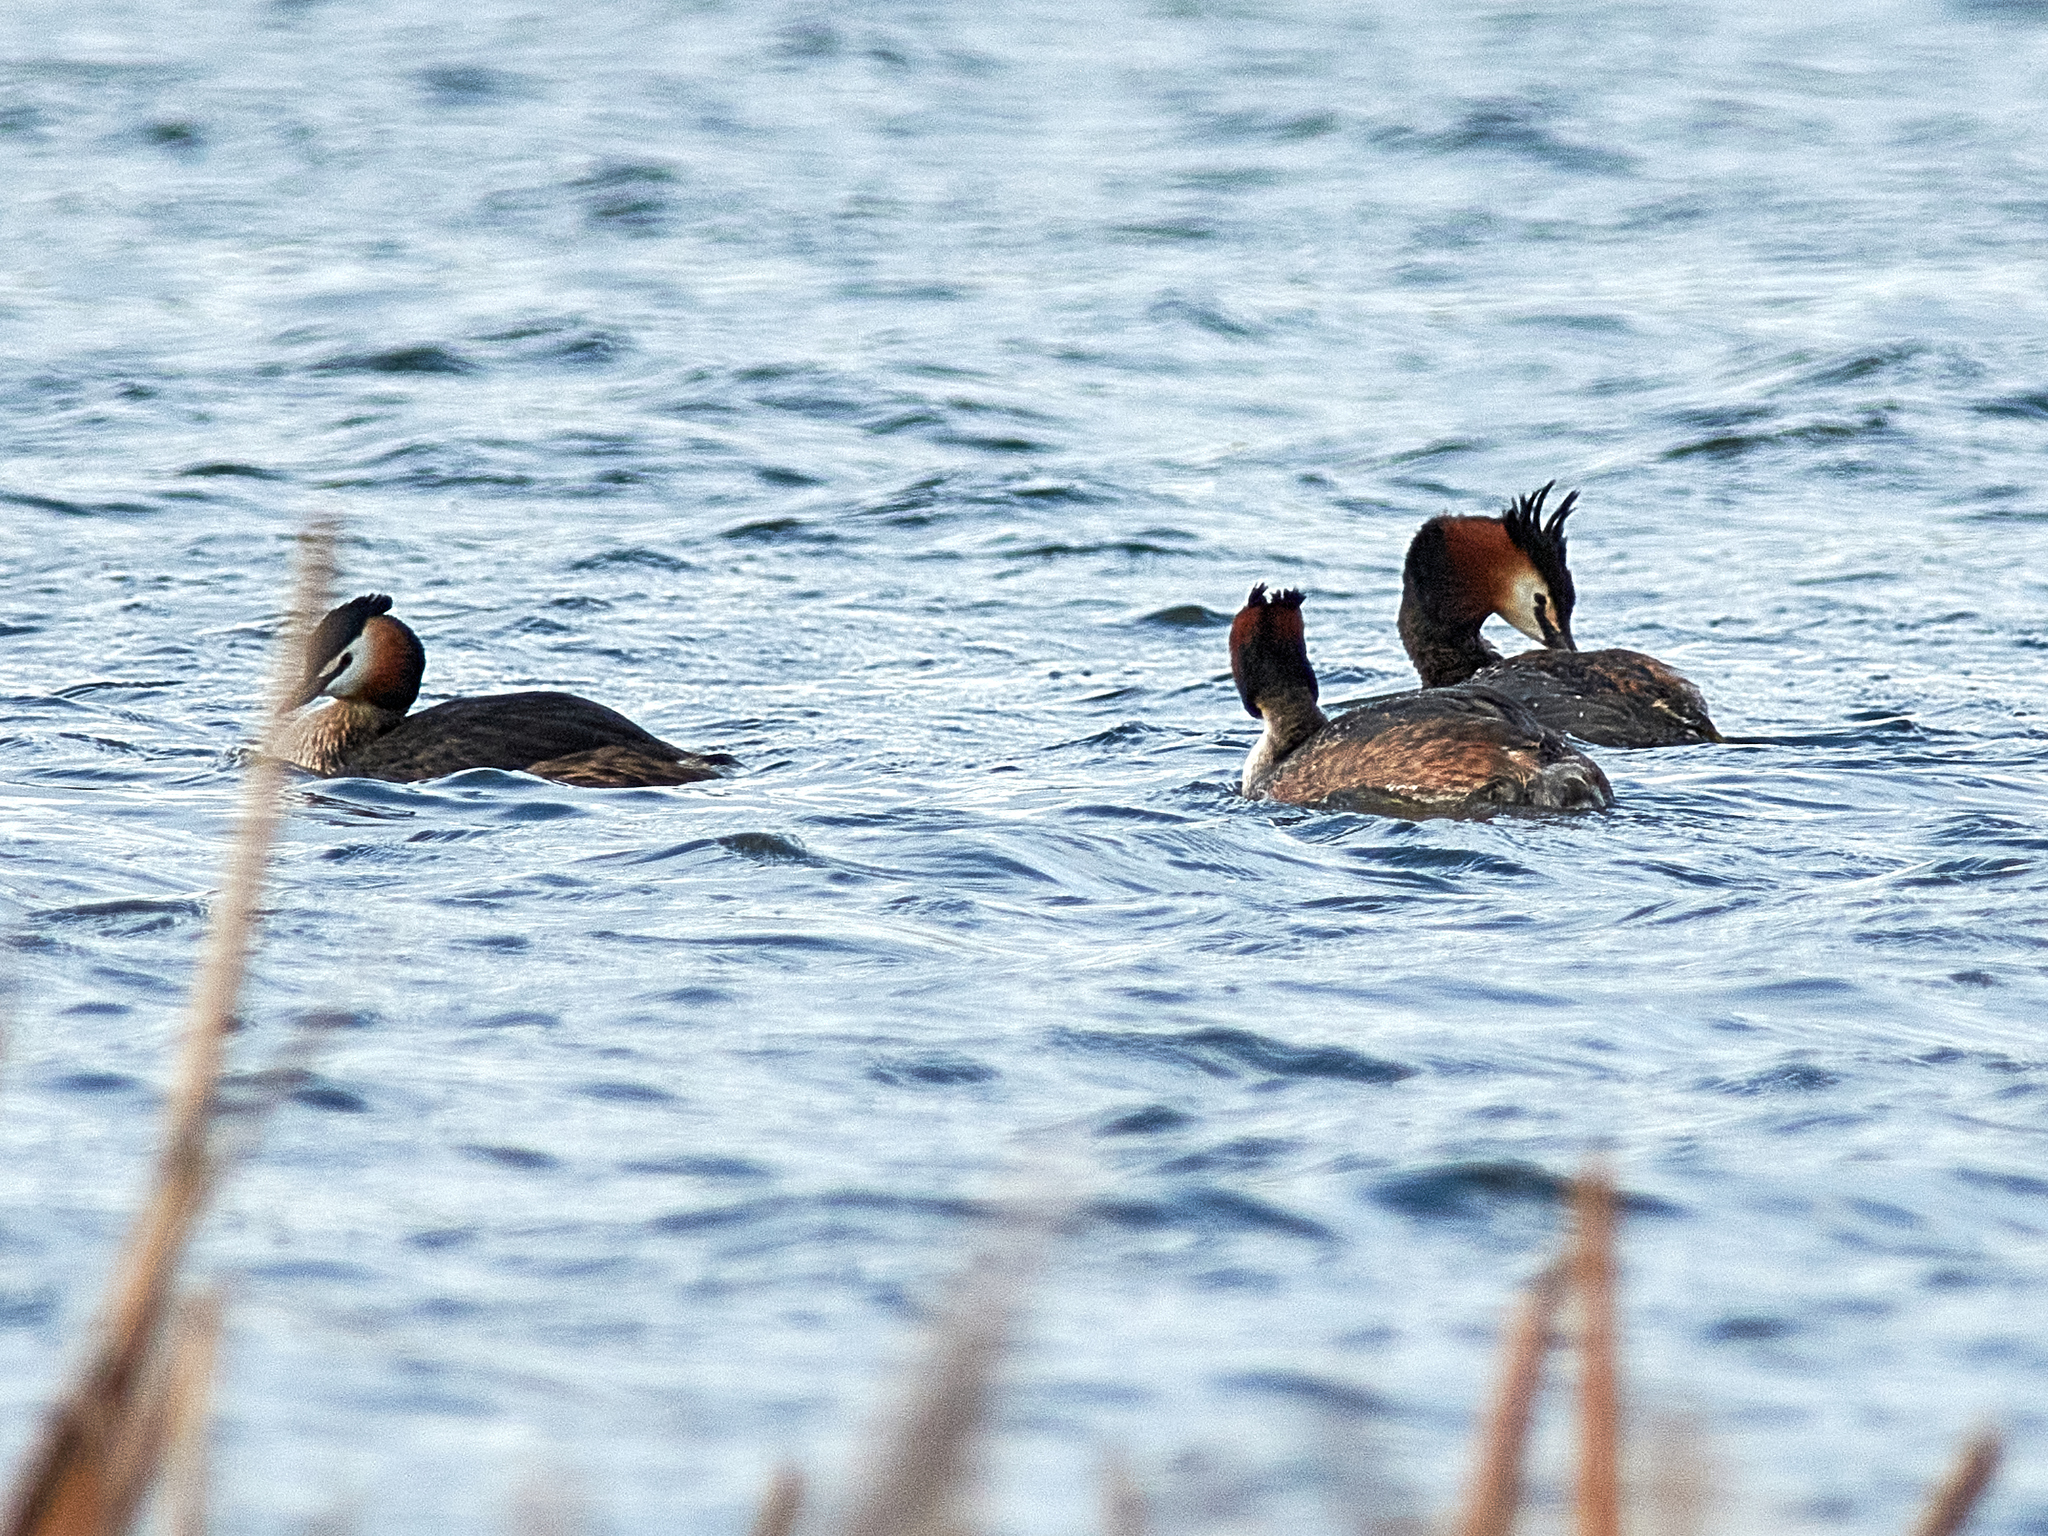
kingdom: Animalia
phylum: Chordata
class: Aves
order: Podicipediformes
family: Podicipedidae
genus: Podiceps
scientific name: Podiceps cristatus
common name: Great crested grebe
